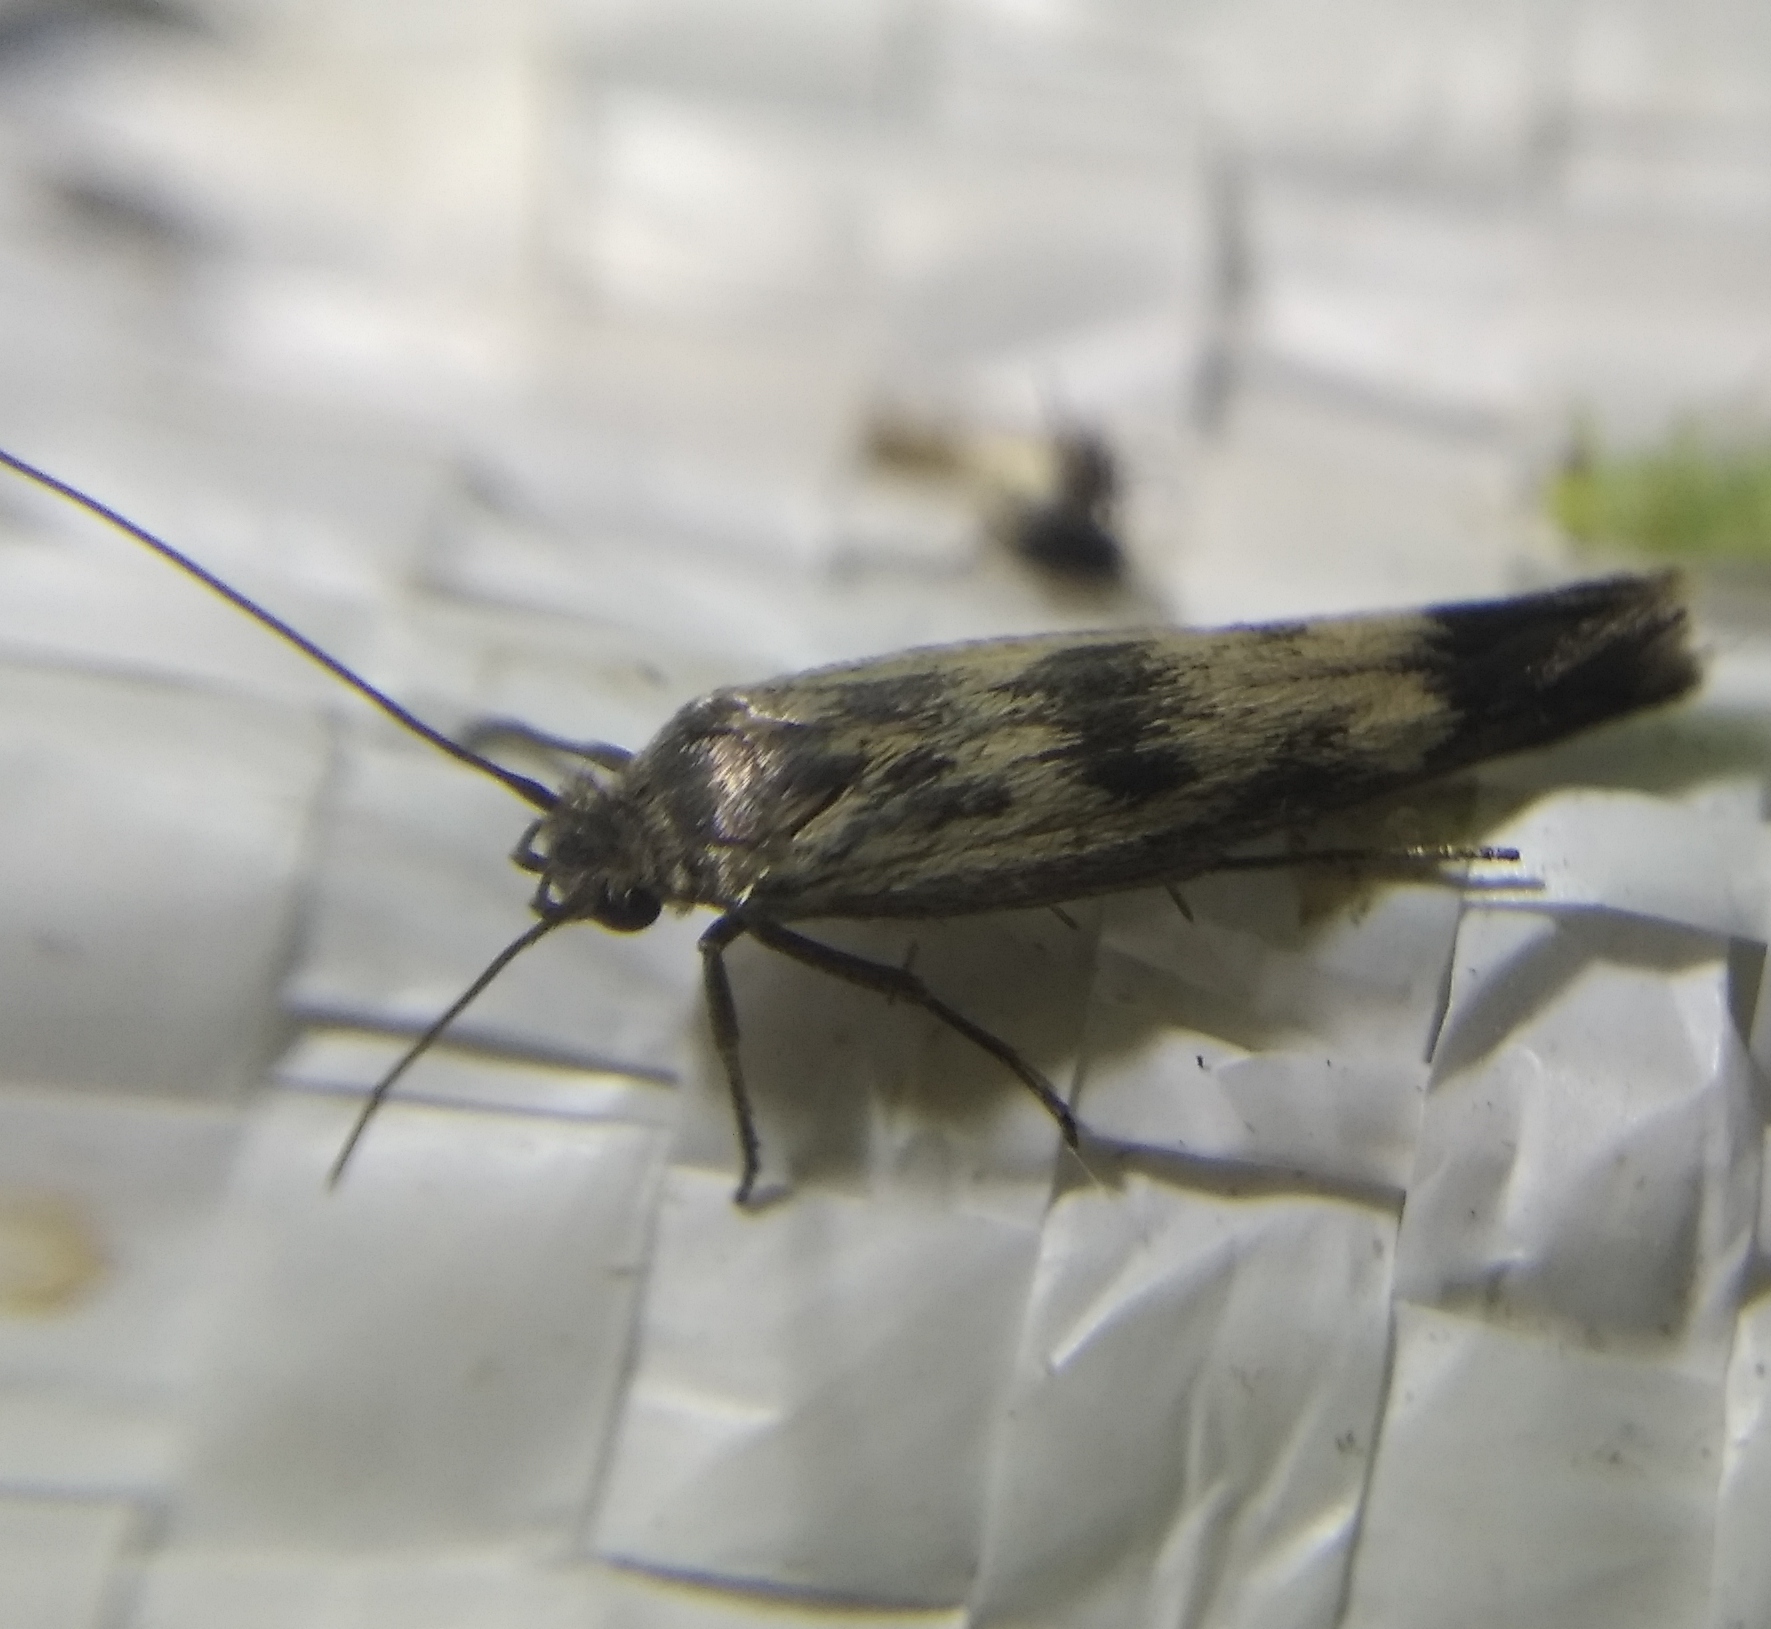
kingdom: Animalia
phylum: Arthropoda
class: Insecta
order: Lepidoptera
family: Scythrididae
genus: Scythris
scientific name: Scythris limbella
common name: Goosefoot owlet
